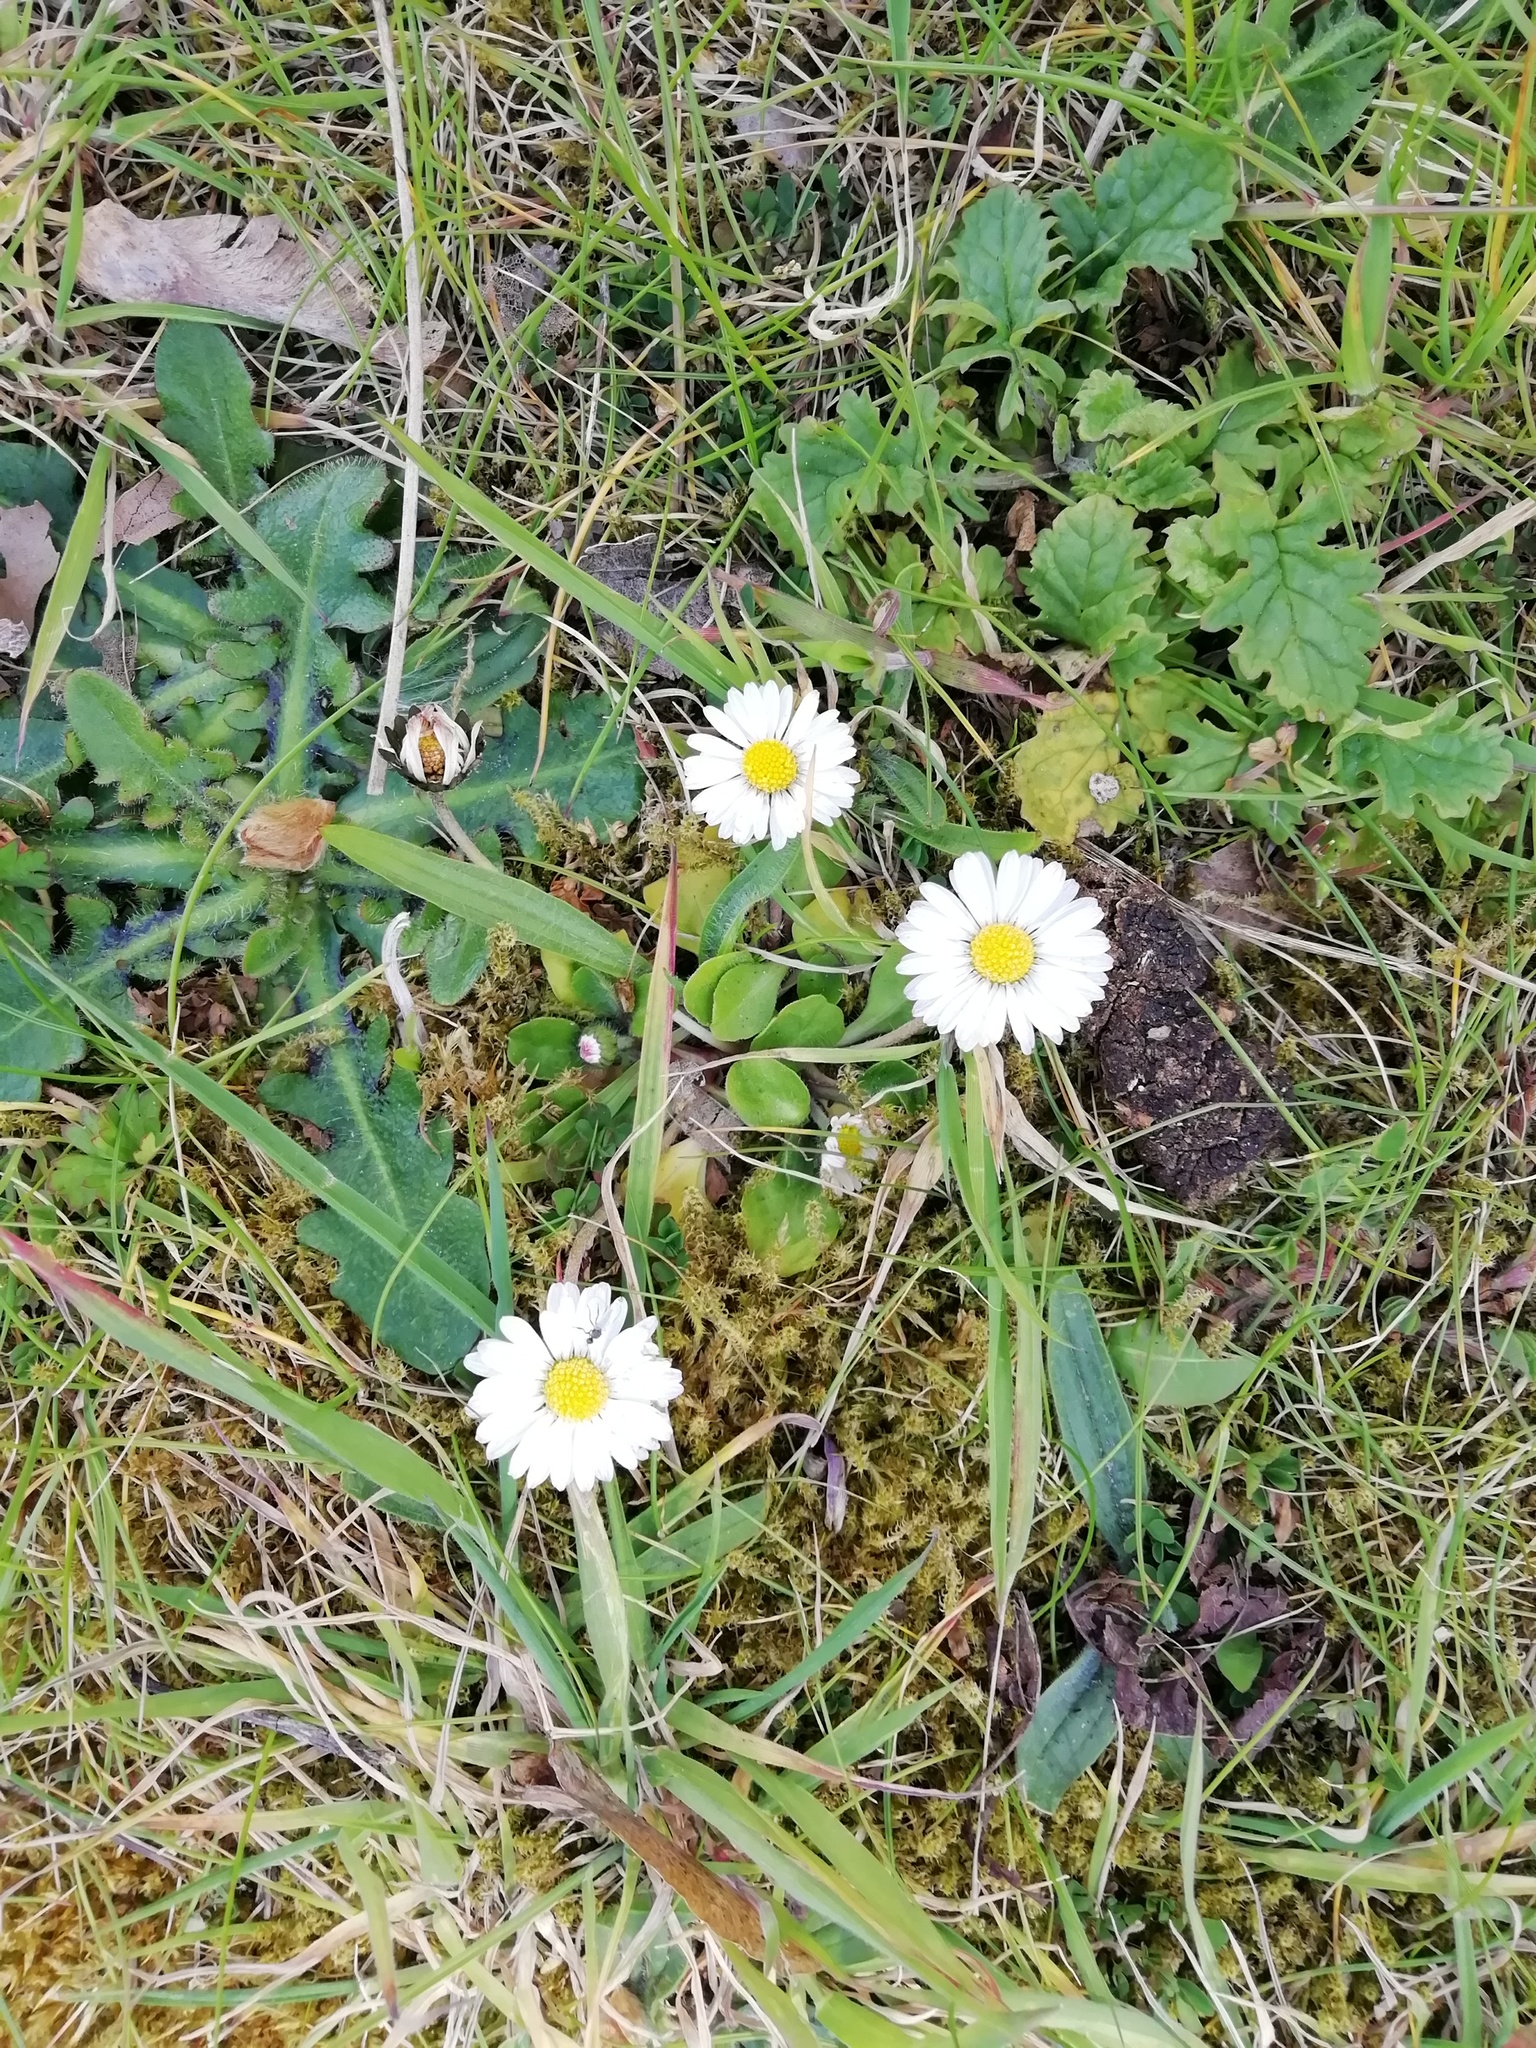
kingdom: Plantae
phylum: Tracheophyta
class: Magnoliopsida
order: Asterales
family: Asteraceae
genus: Bellis
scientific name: Bellis perennis
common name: Lawndaisy
